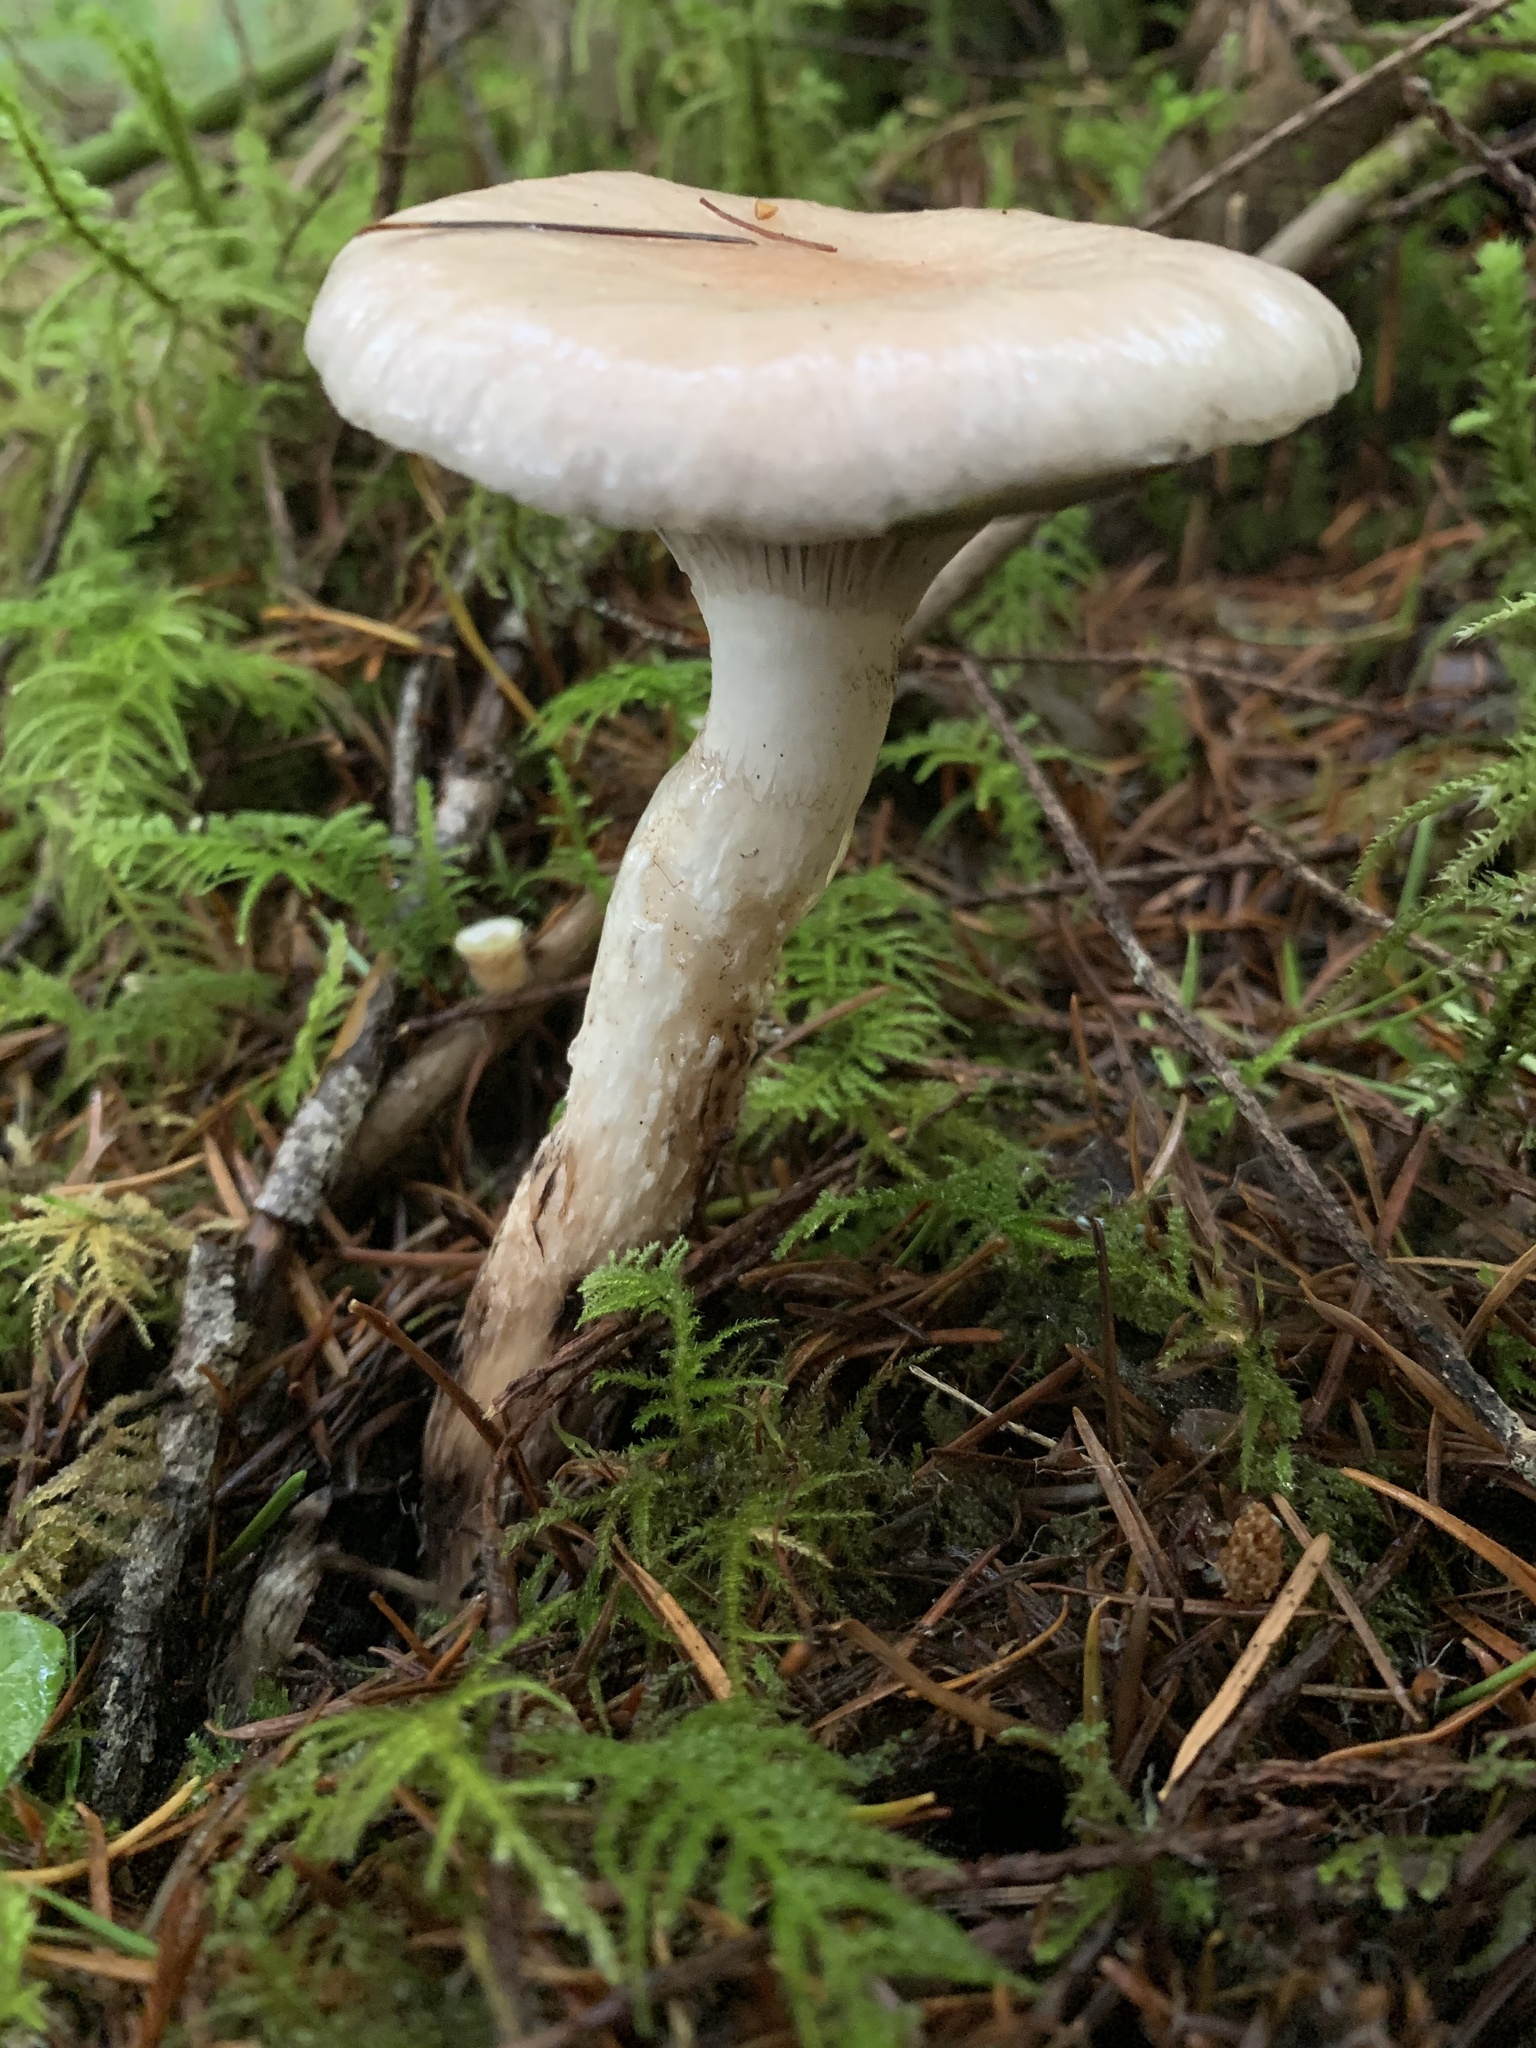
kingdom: Fungi
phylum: Basidiomycota
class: Agaricomycetes
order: Boletales
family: Gomphidiaceae
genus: Gomphidius
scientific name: Gomphidius smithii
